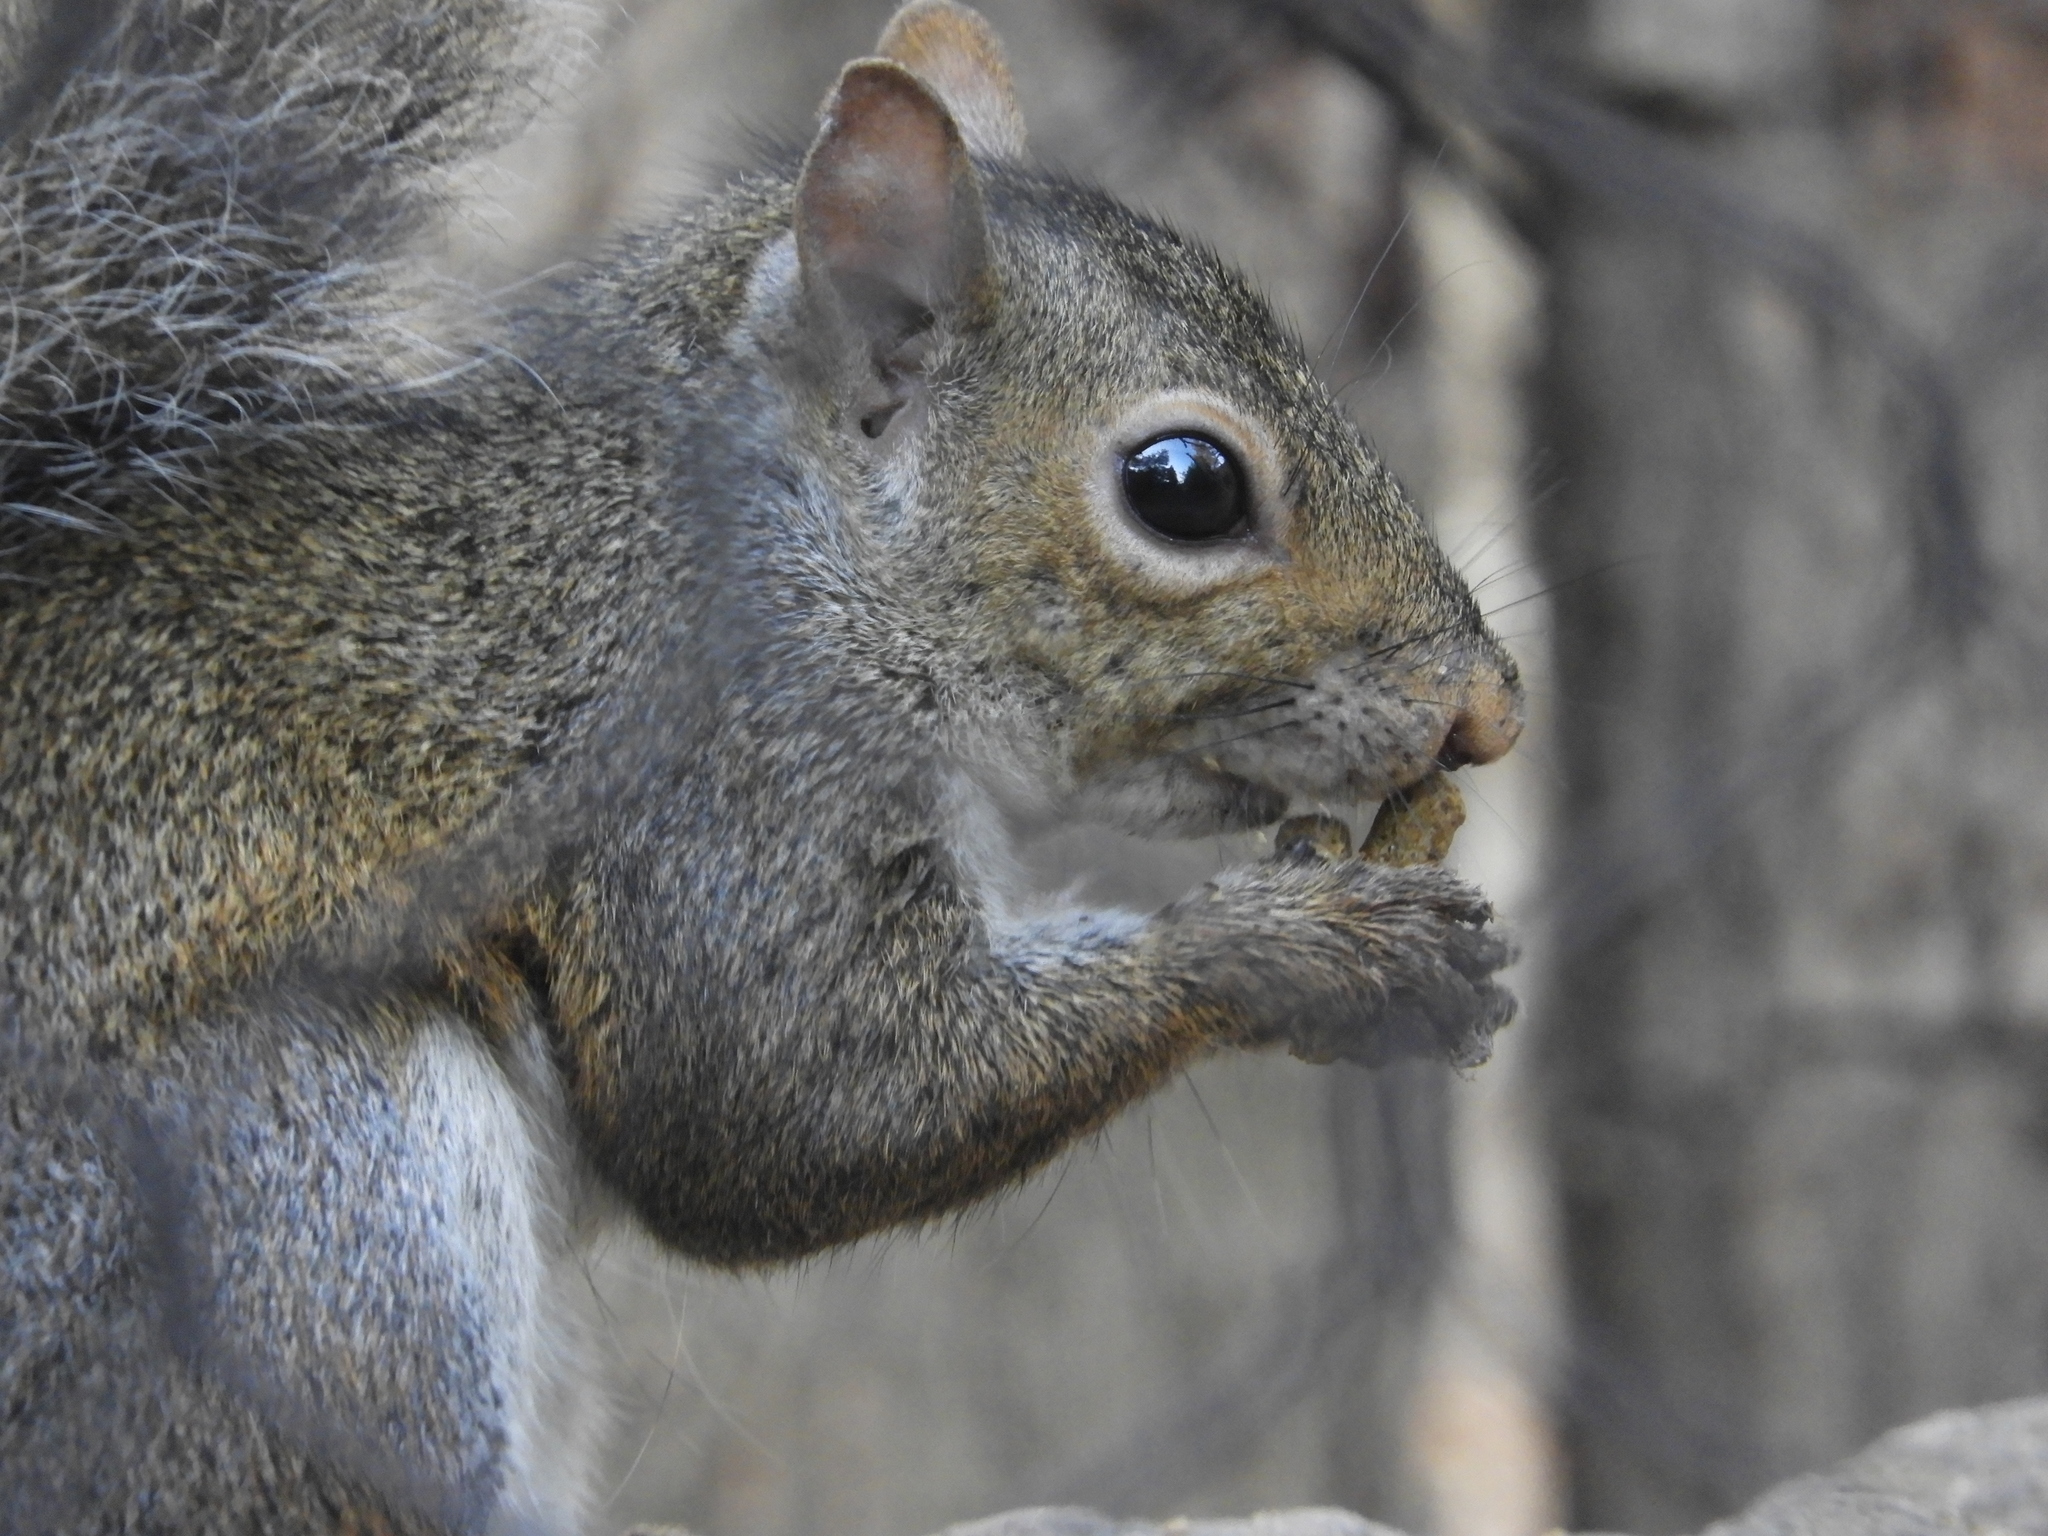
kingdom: Animalia
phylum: Chordata
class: Mammalia
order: Rodentia
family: Sciuridae
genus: Sciurus
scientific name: Sciurus carolinensis
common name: Eastern gray squirrel
